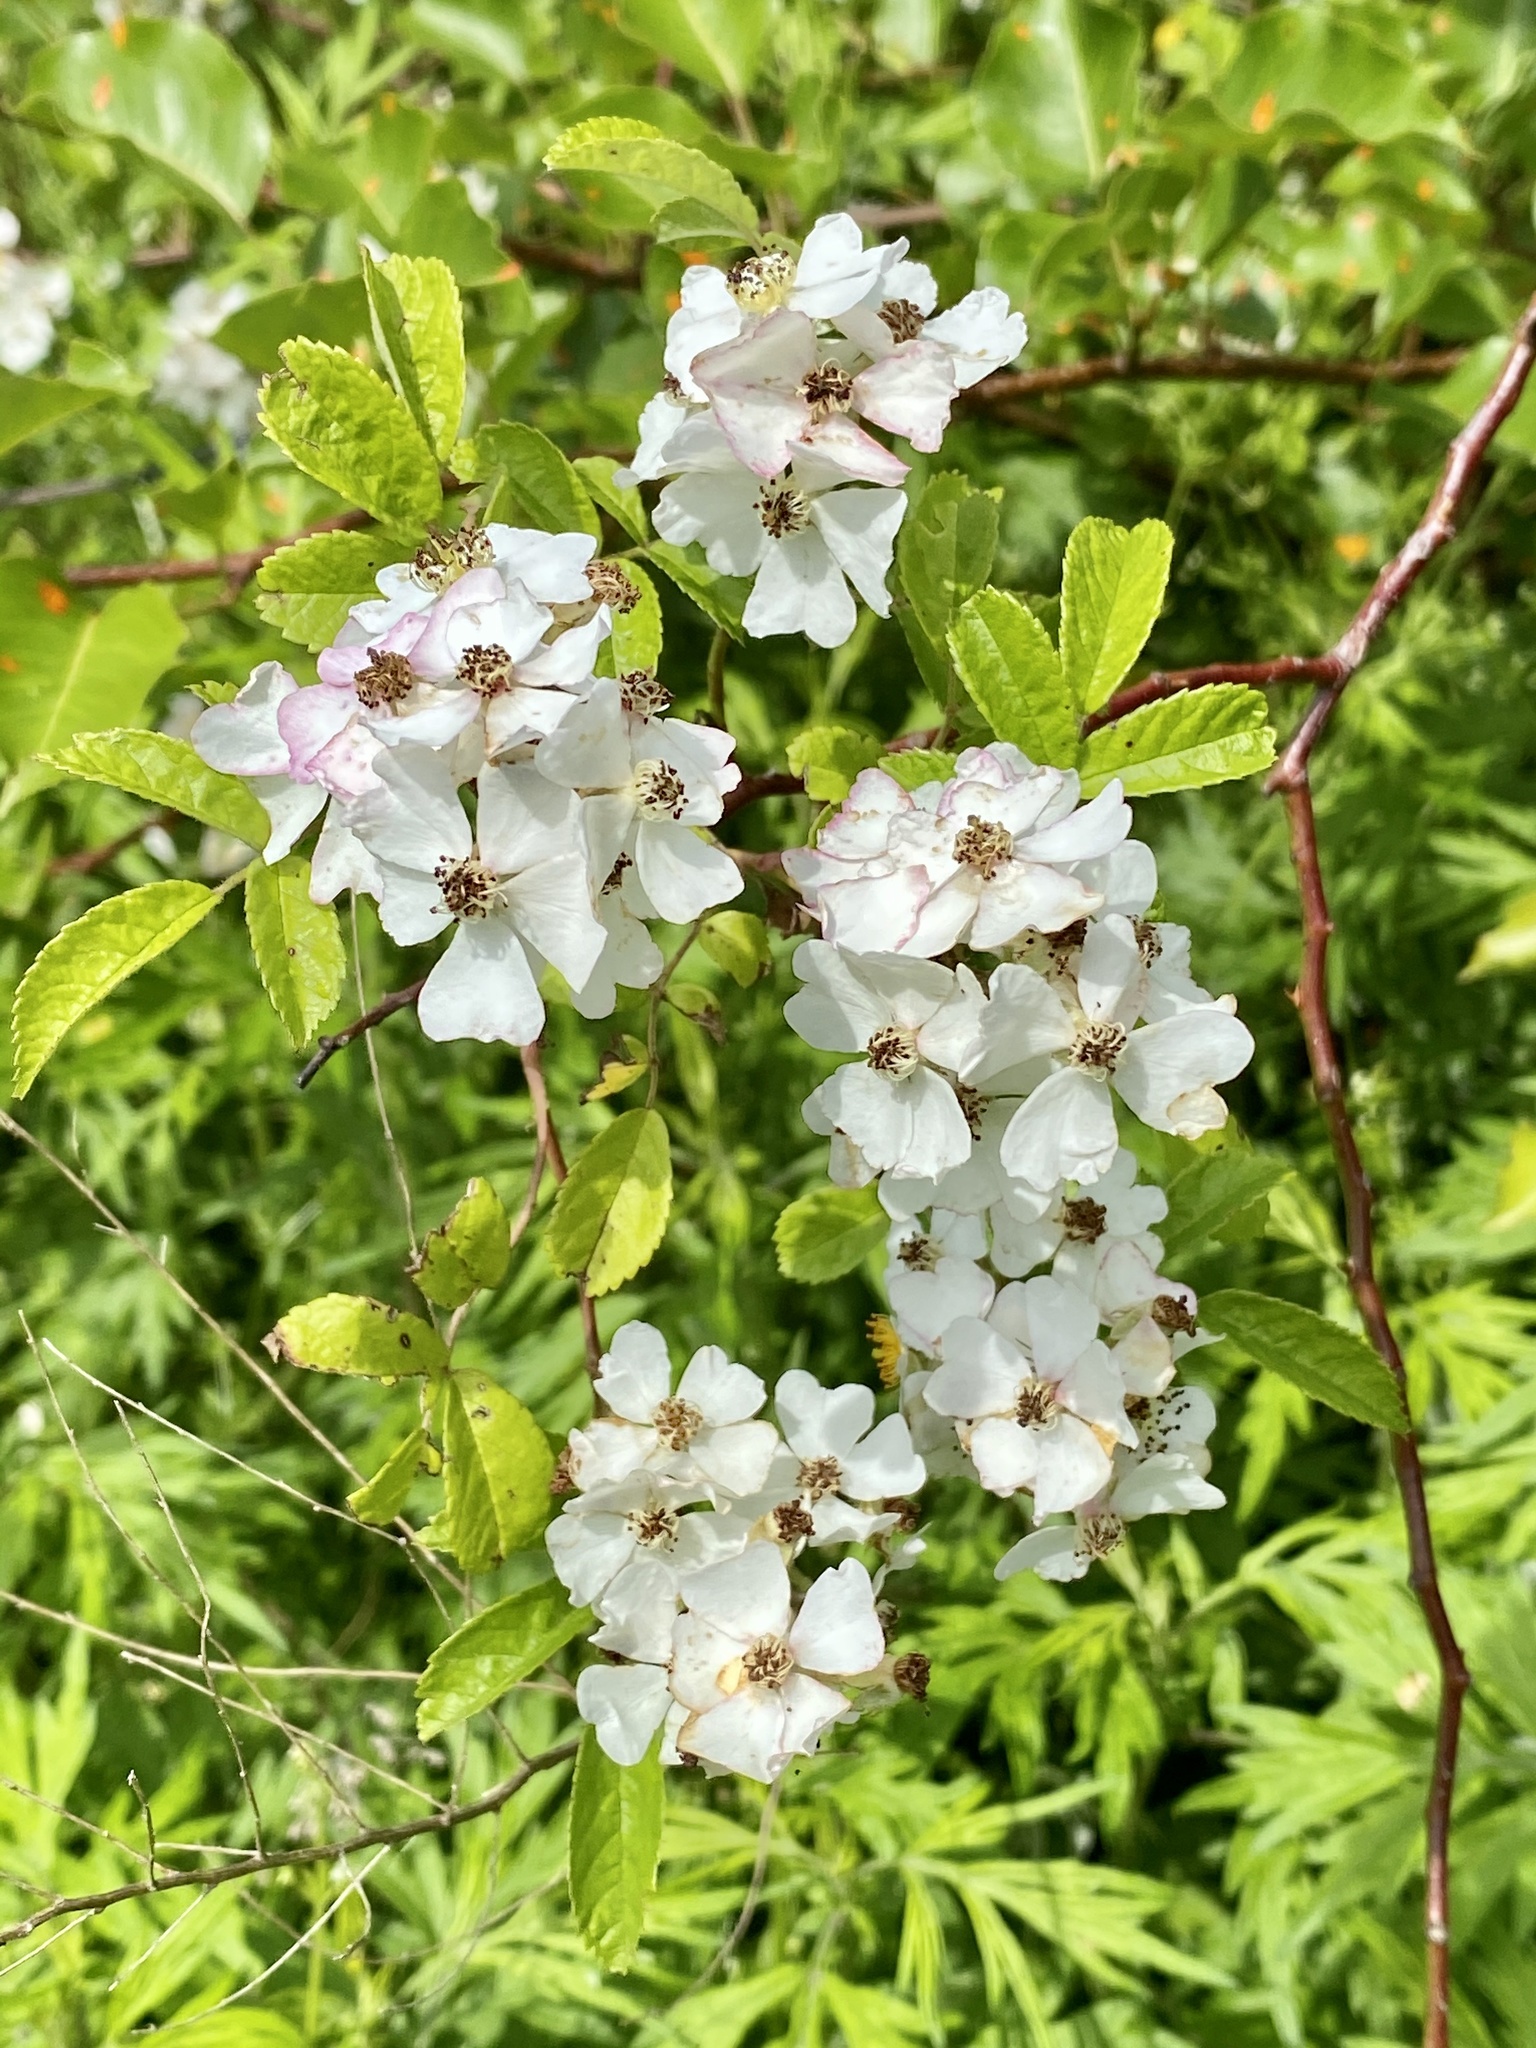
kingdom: Plantae
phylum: Tracheophyta
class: Magnoliopsida
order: Rosales
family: Rosaceae
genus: Rosa
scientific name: Rosa multiflora
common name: Multiflora rose
